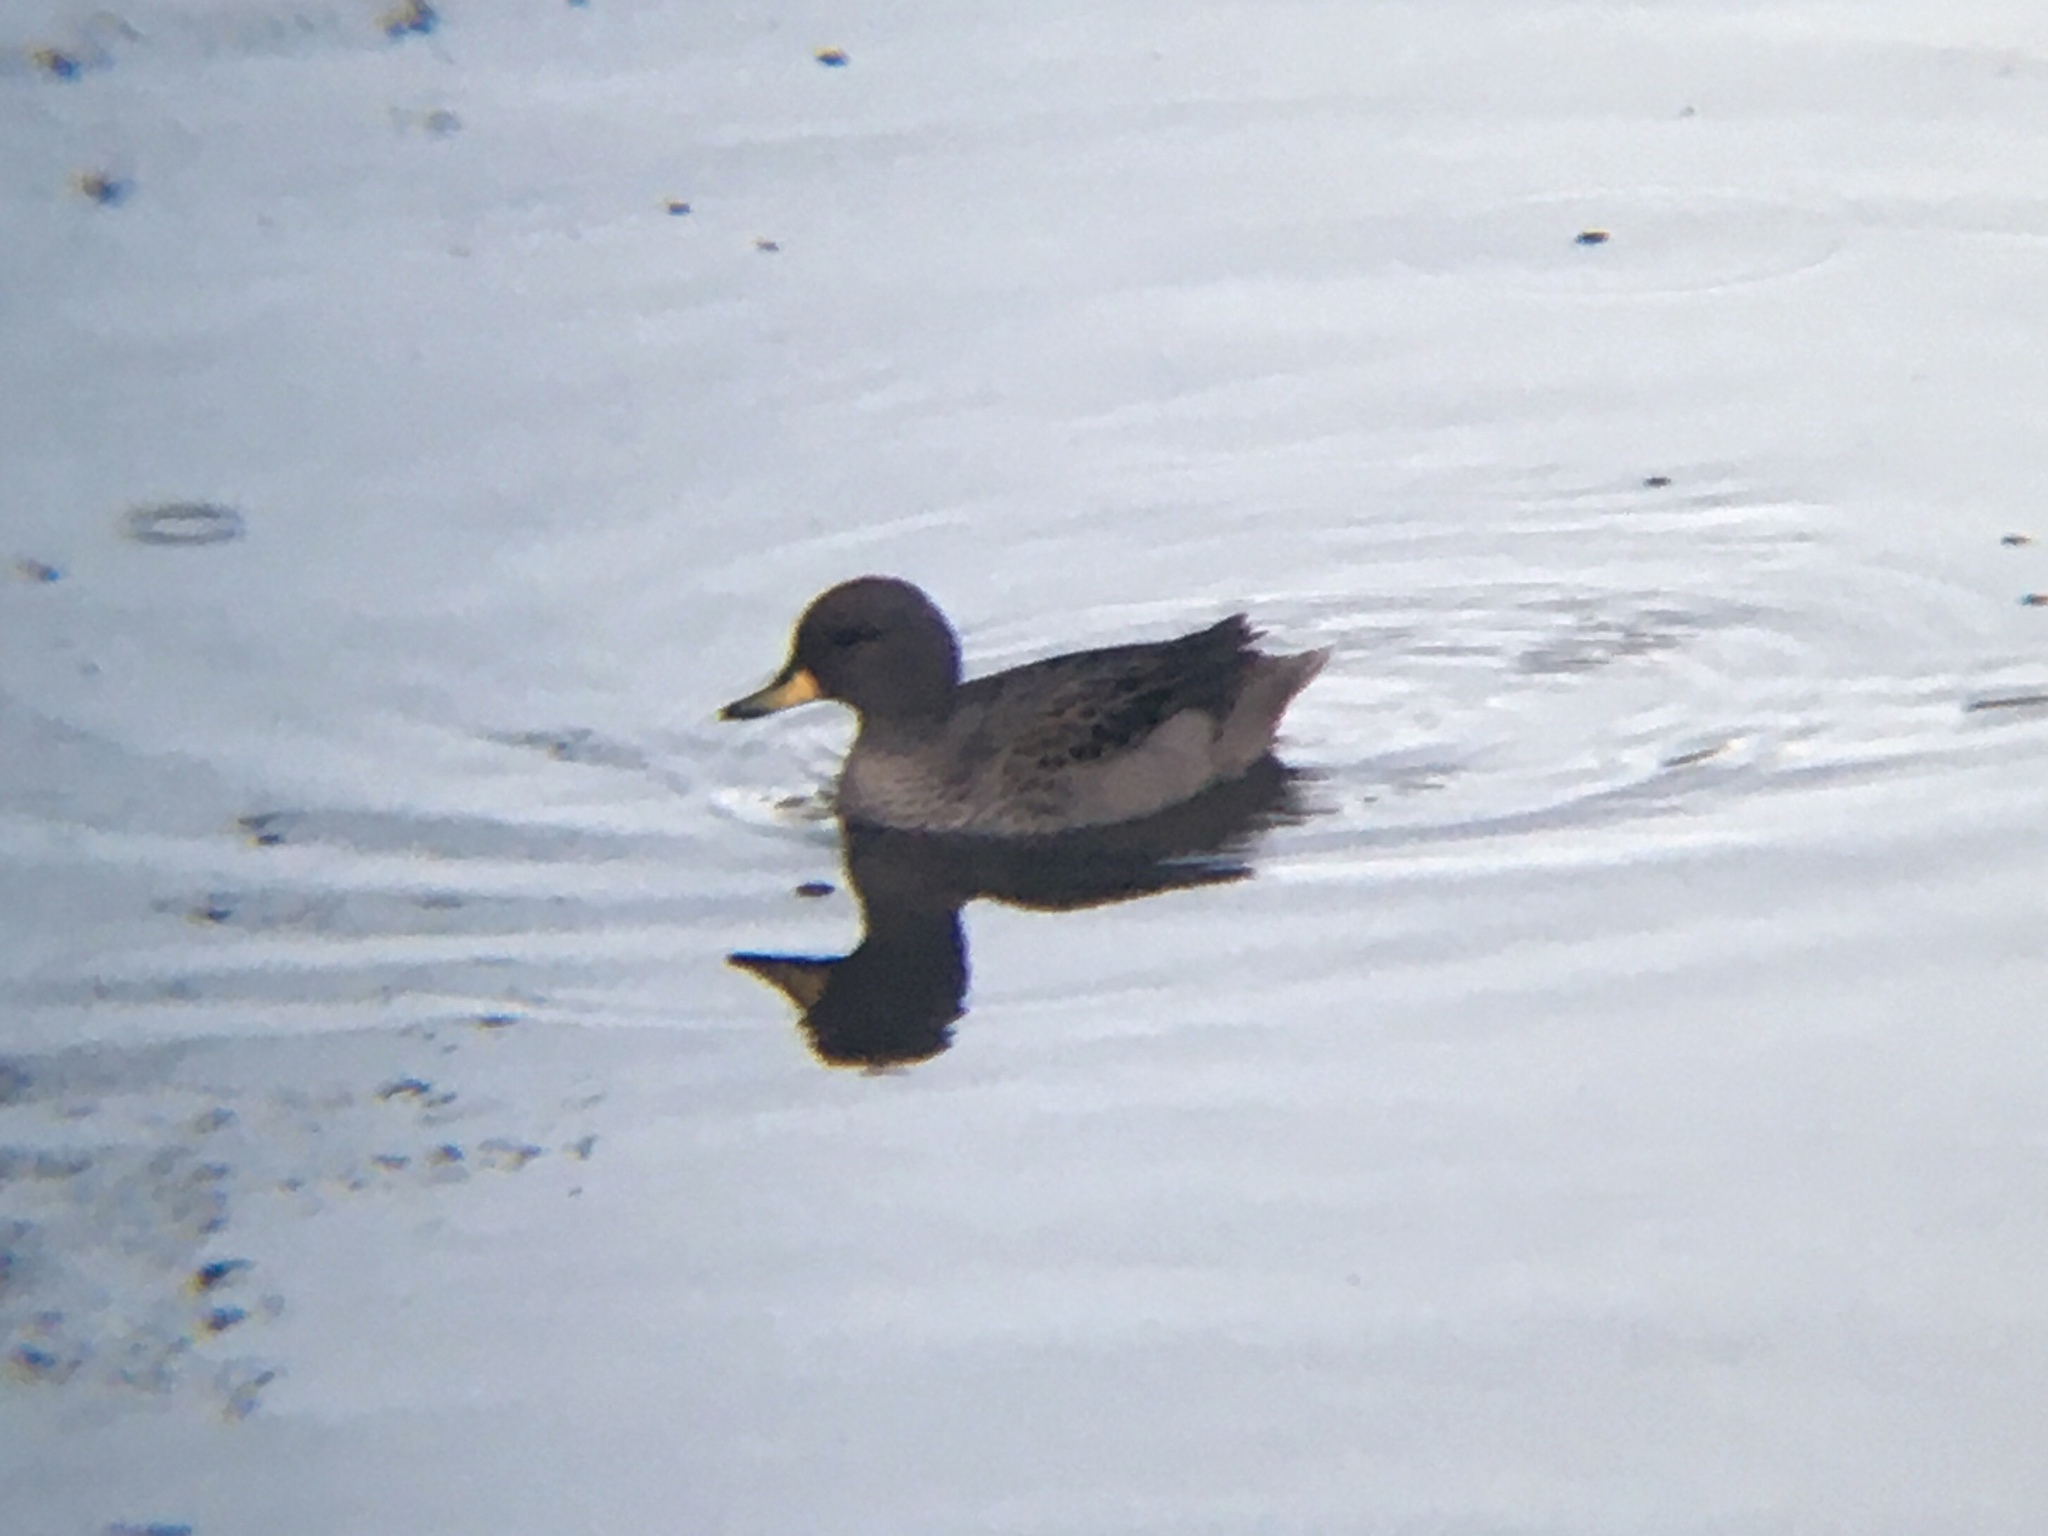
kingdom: Animalia
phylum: Chordata
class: Aves
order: Anseriformes
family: Anatidae
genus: Anas
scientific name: Anas flavirostris
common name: Yellow-billed teal
